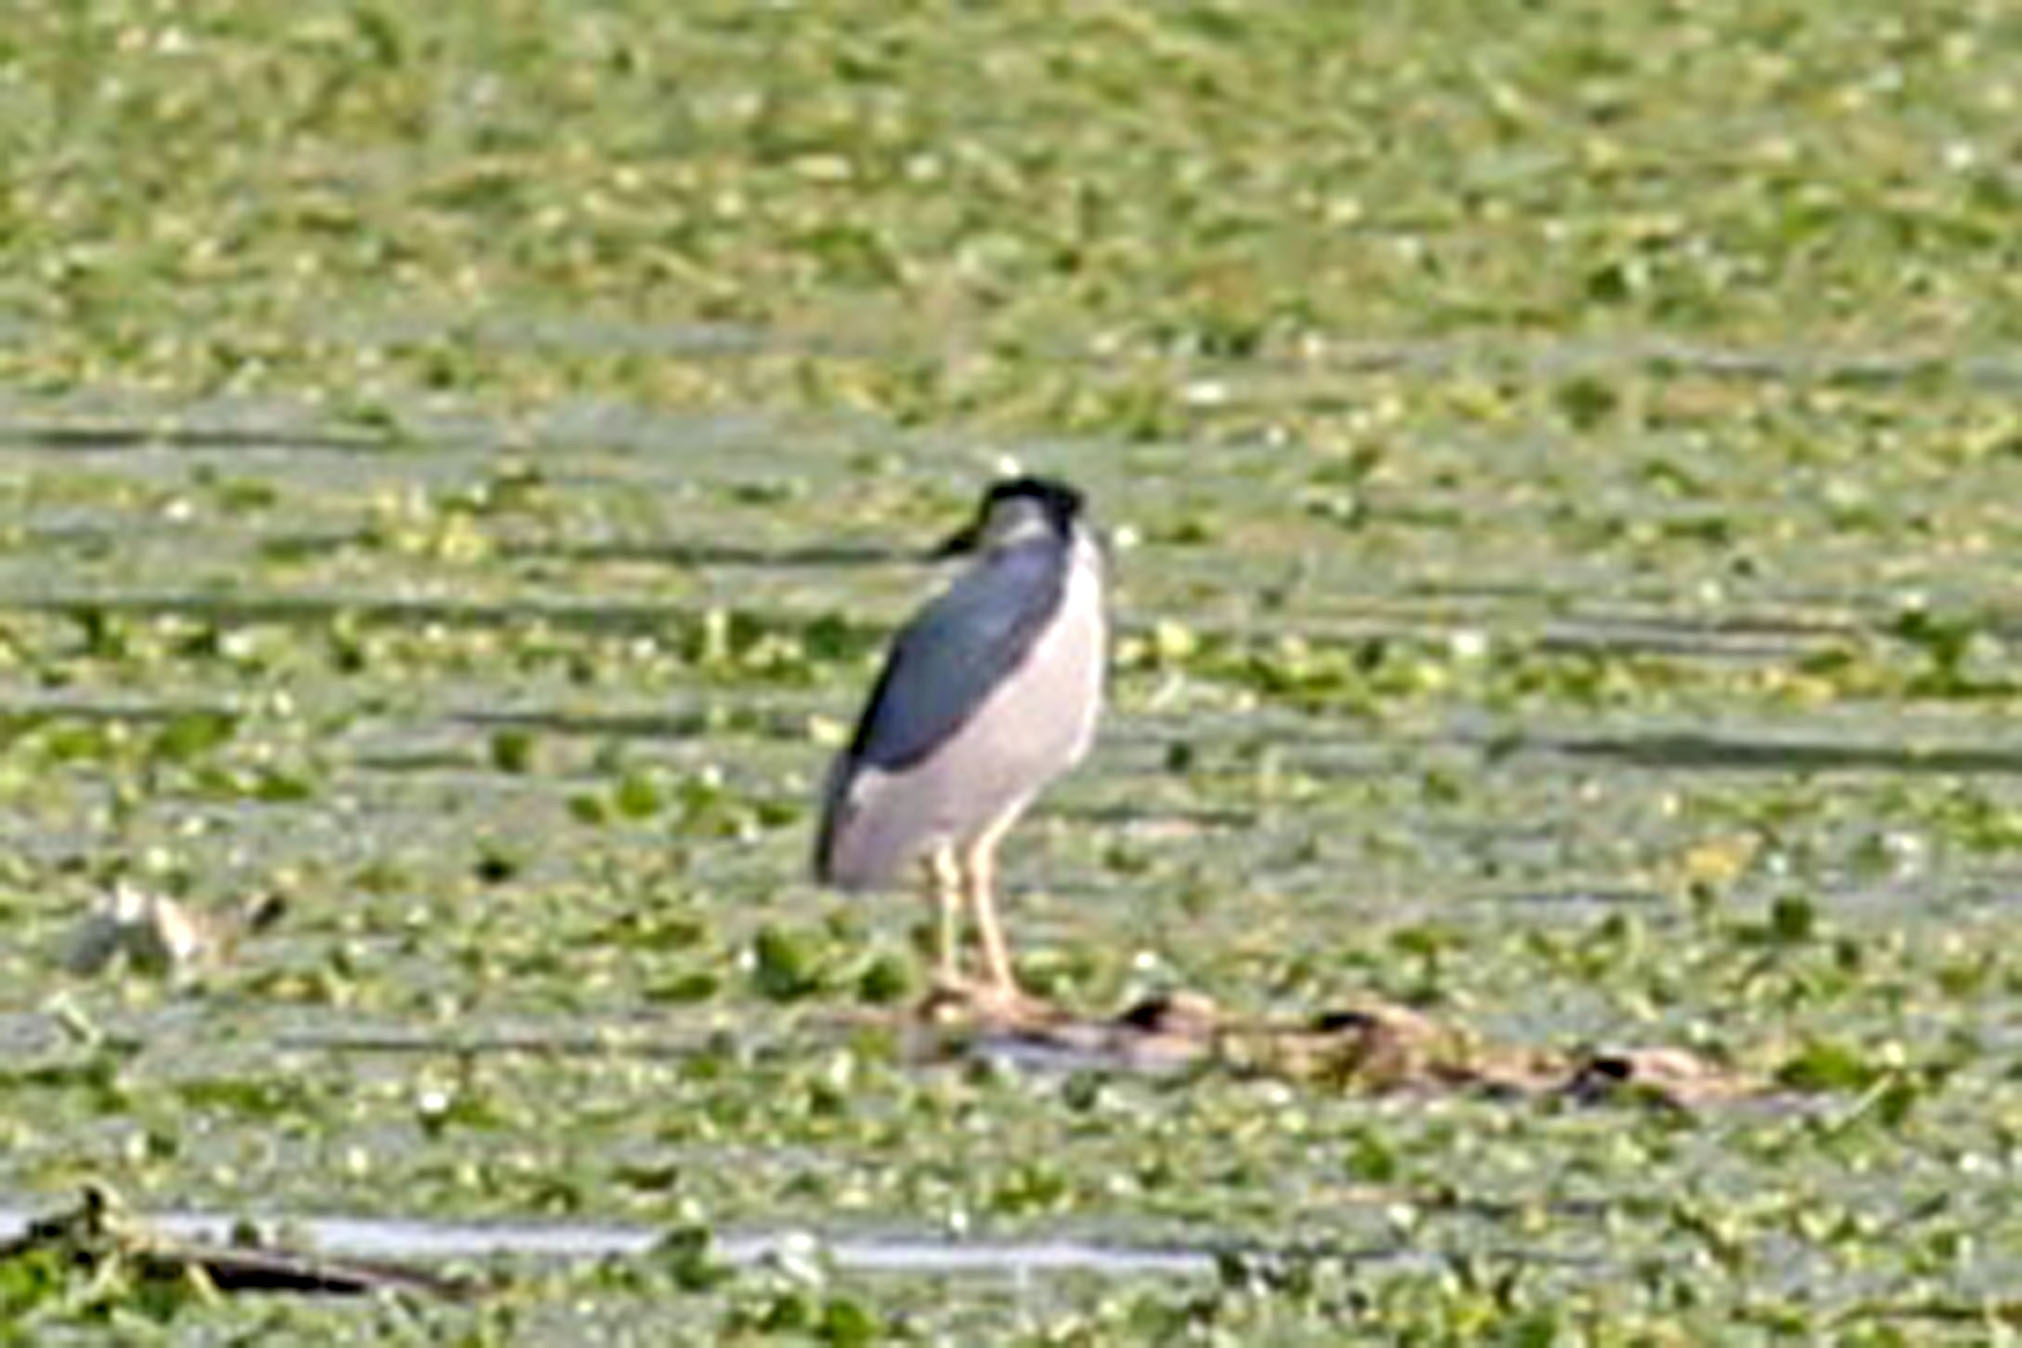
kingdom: Animalia
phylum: Chordata
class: Aves
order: Pelecaniformes
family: Ardeidae
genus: Nycticorax
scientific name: Nycticorax nycticorax
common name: Black-crowned night heron
